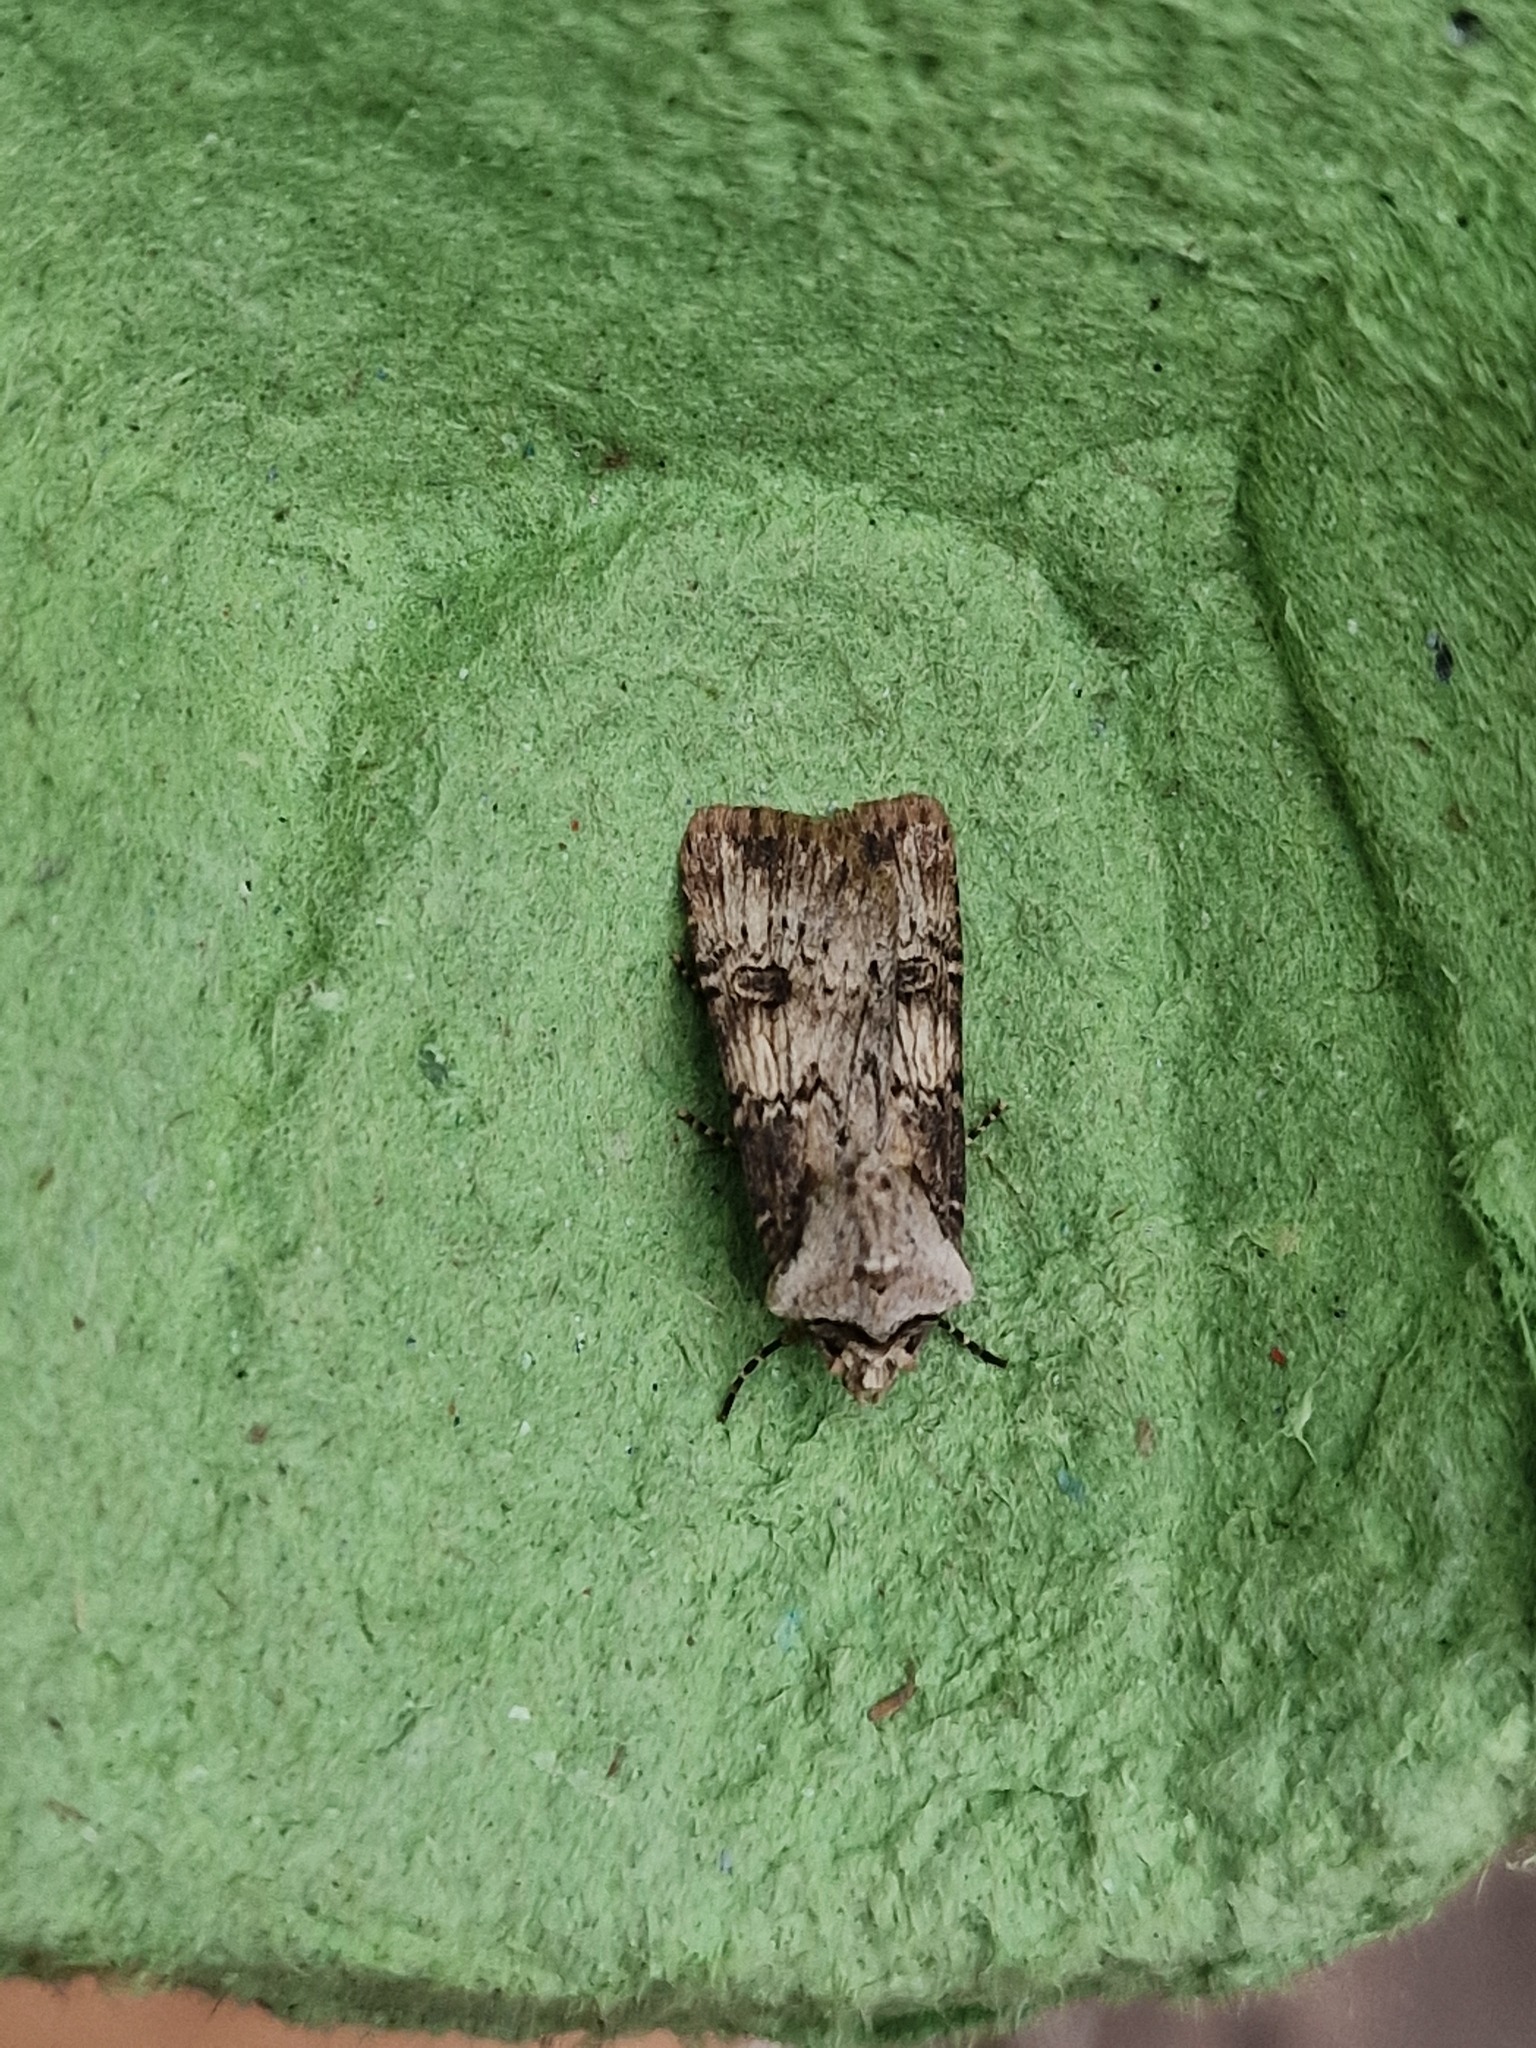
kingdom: Animalia
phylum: Arthropoda
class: Insecta
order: Lepidoptera
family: Noctuidae
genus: Agrotis
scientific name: Agrotis puta
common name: Shuttle-shaped dart
